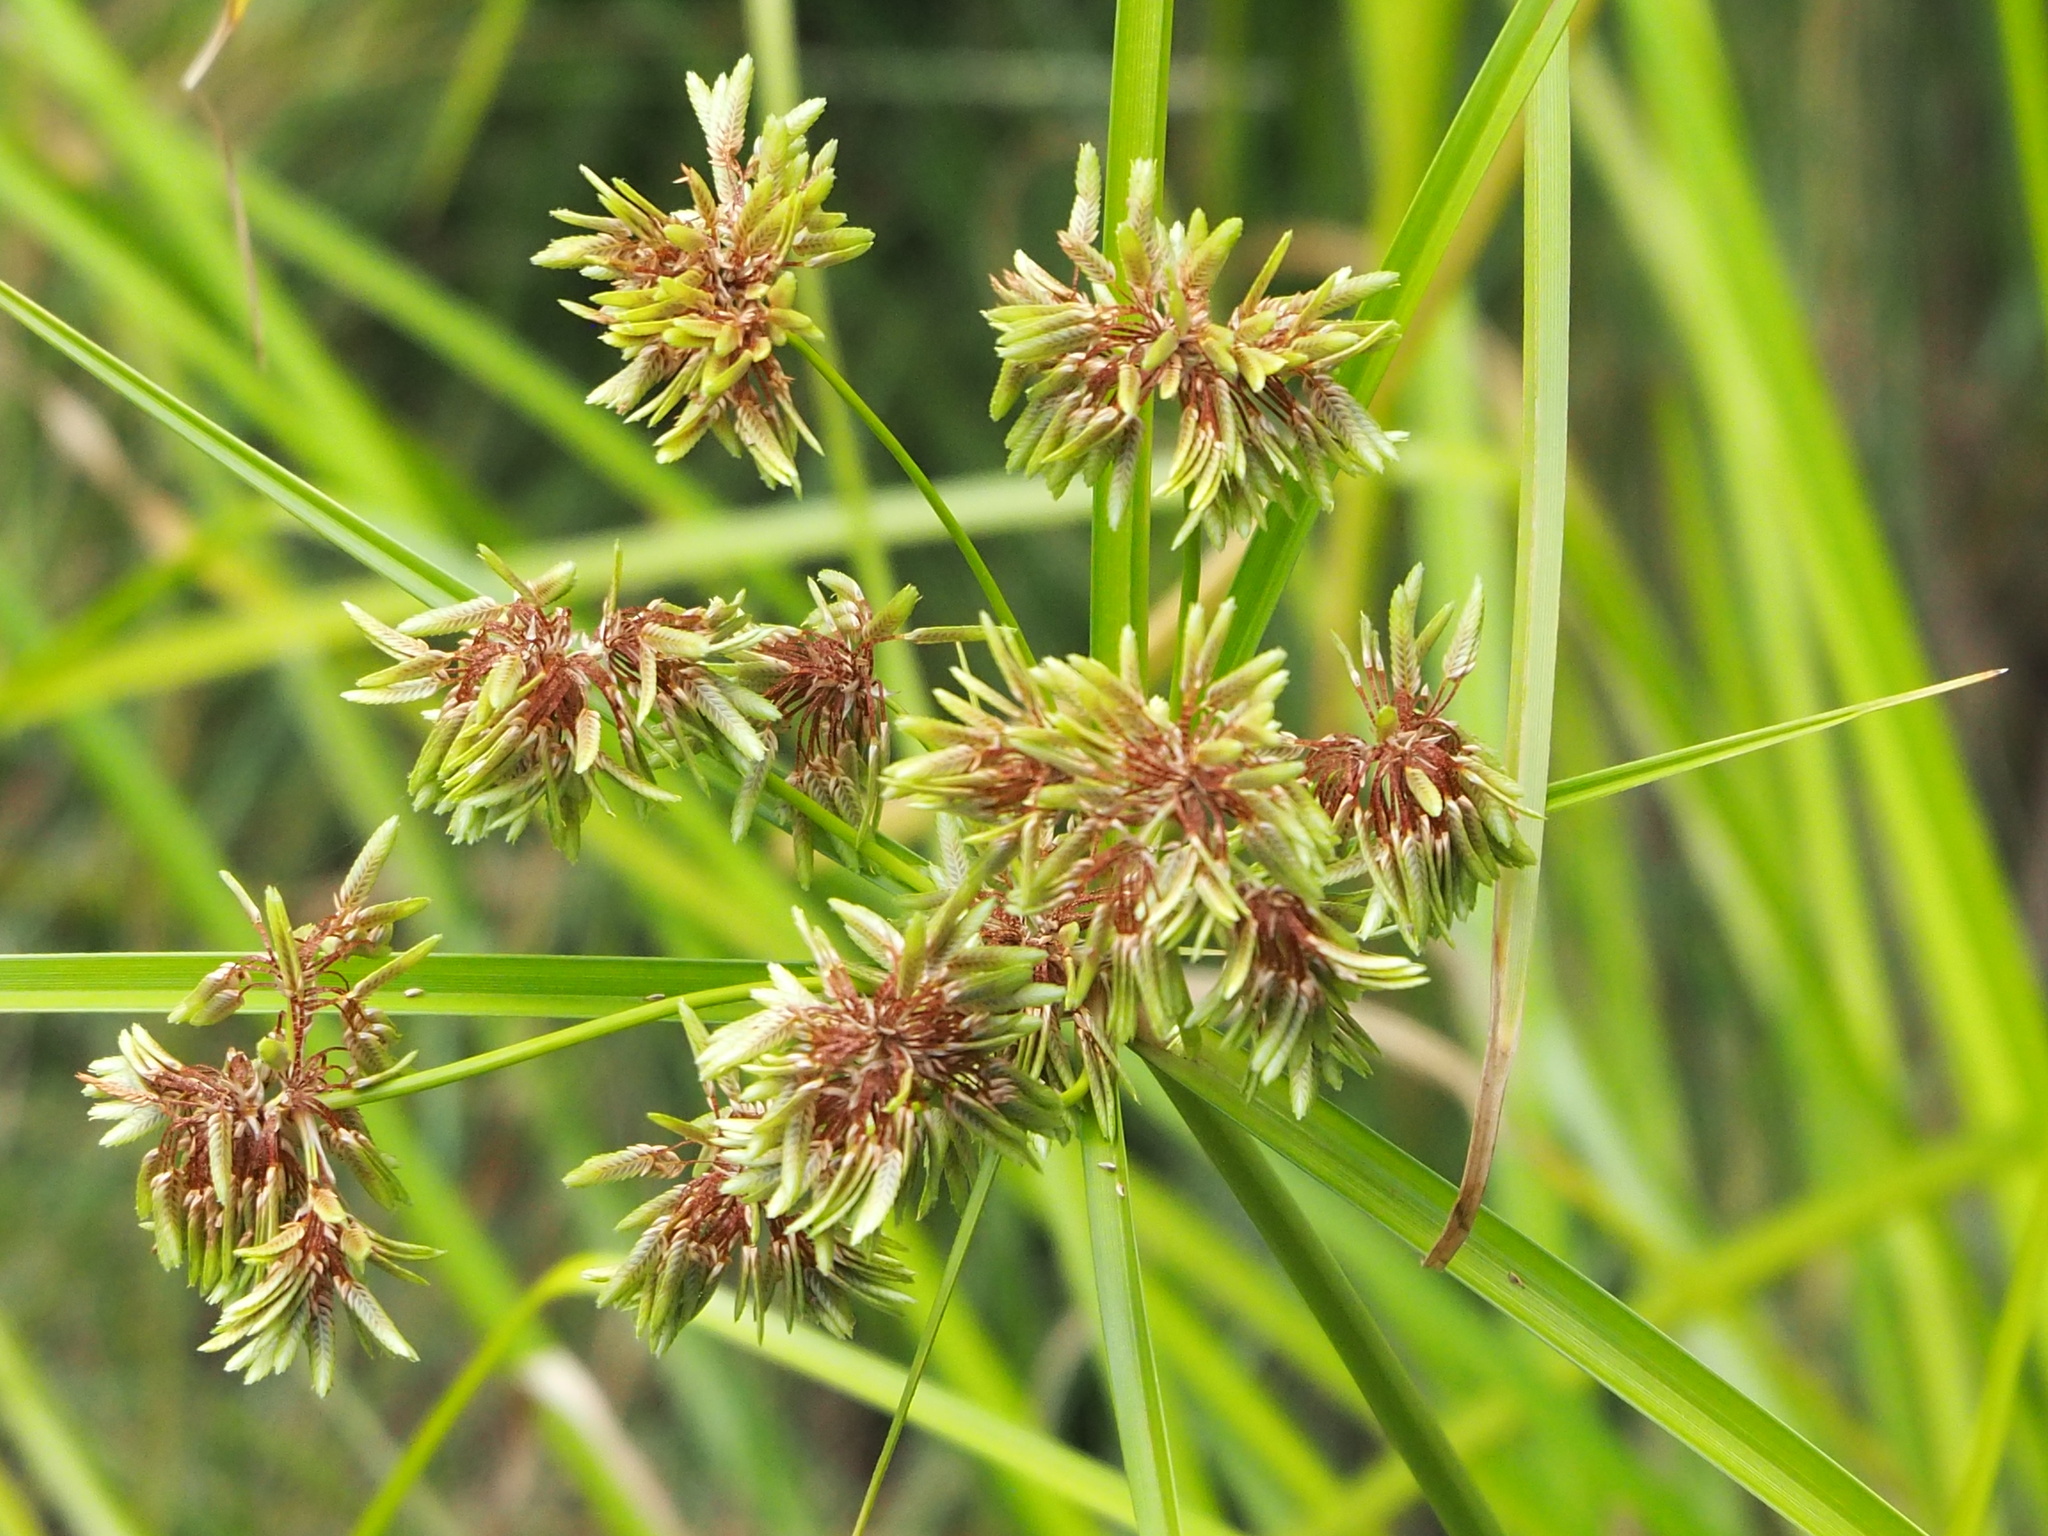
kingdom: Plantae
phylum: Tracheophyta
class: Liliopsida
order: Poales
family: Cyperaceae
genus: Cyperus
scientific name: Cyperus eragrostis
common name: Tall flatsedge
